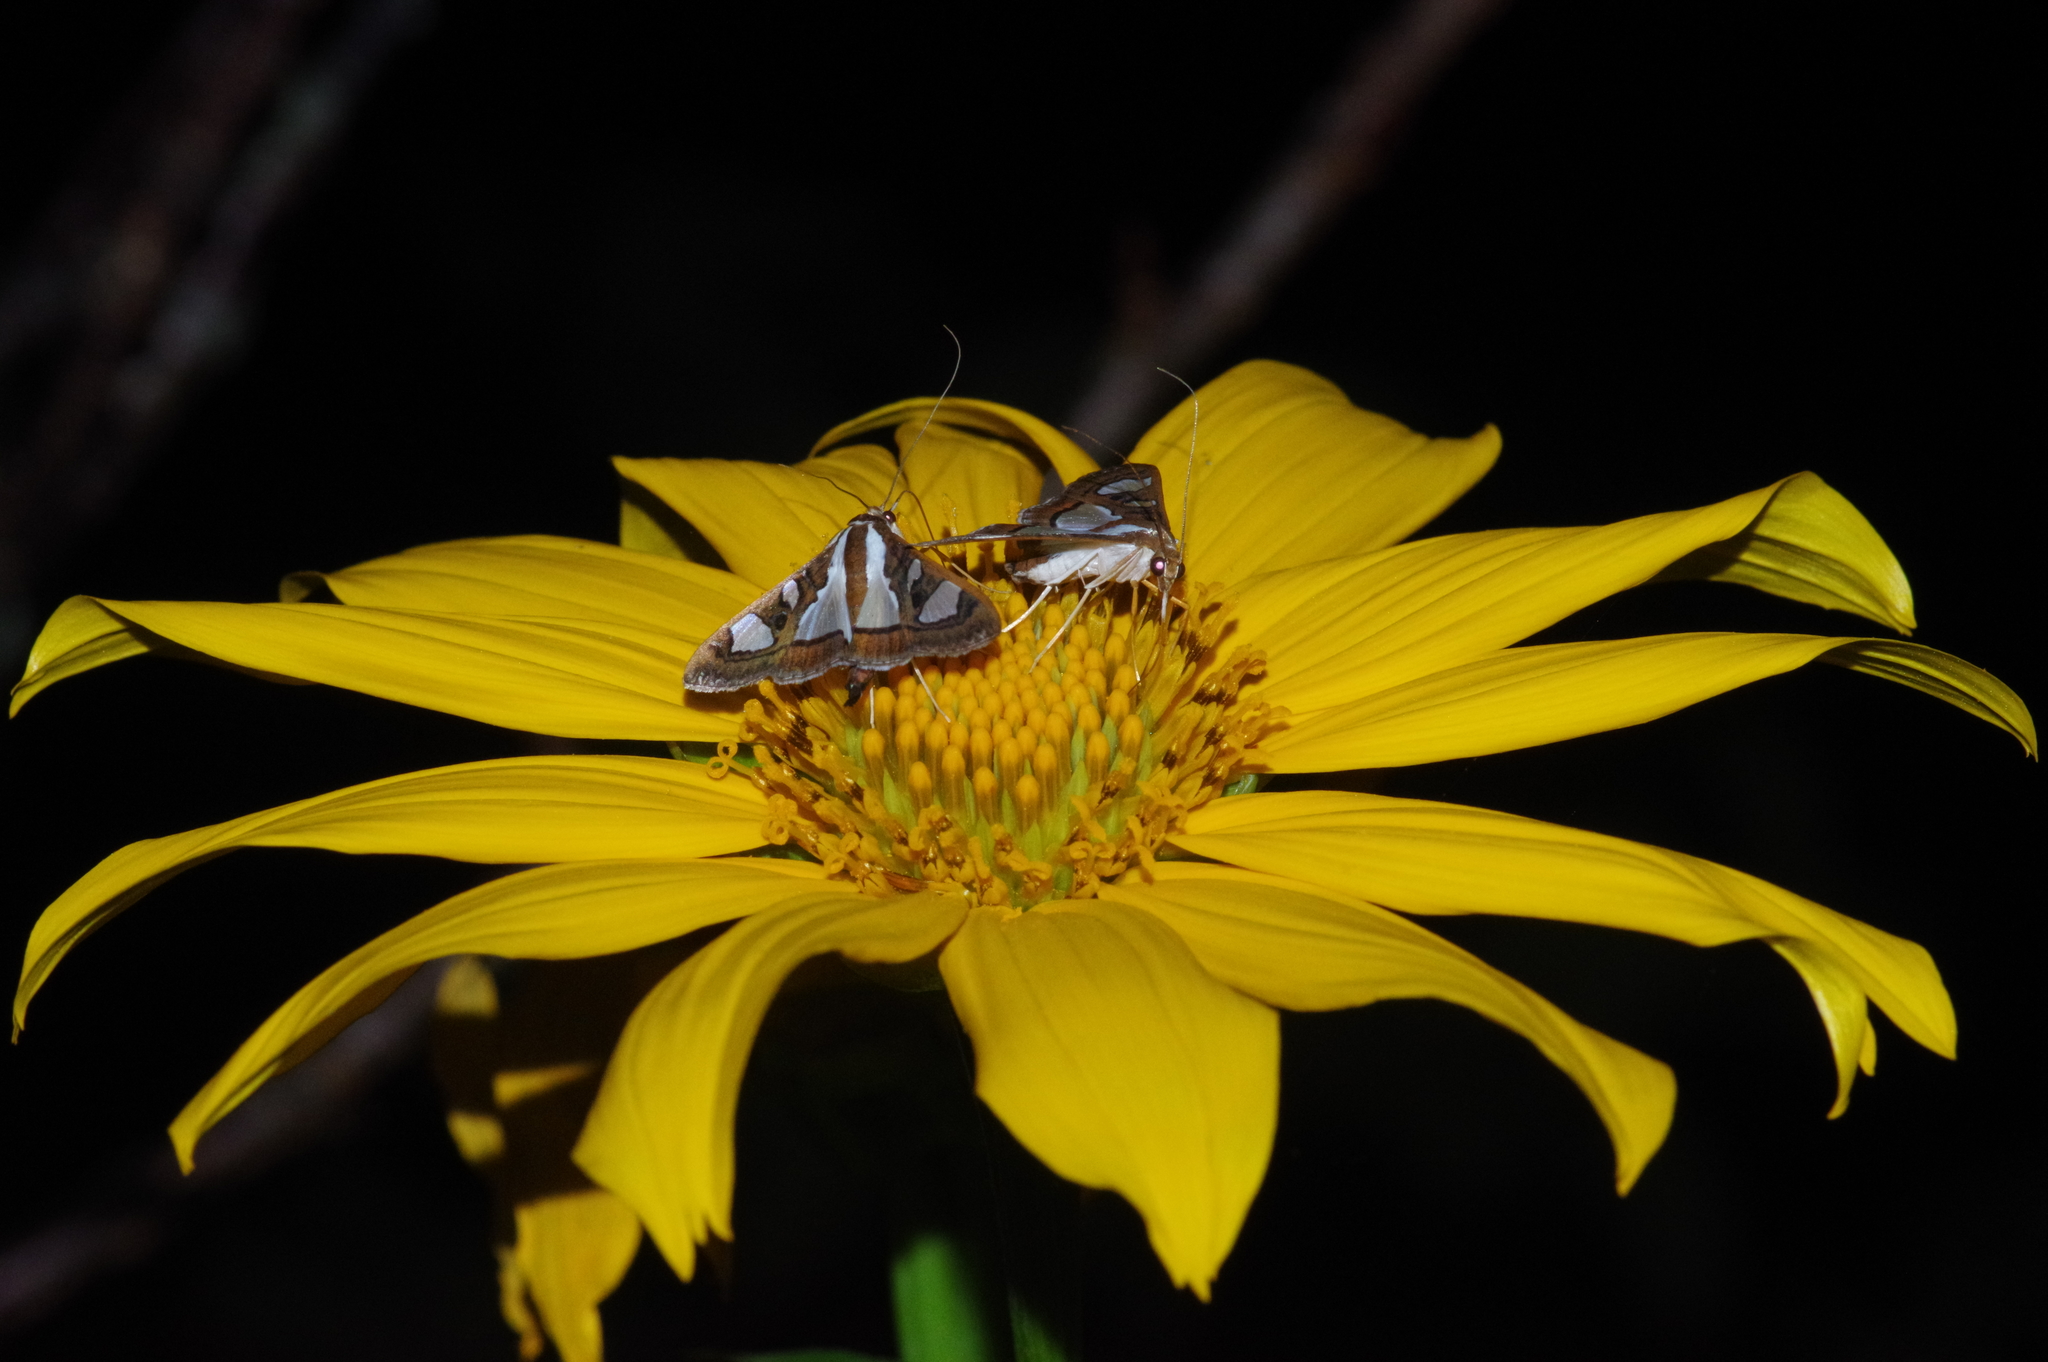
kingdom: Animalia
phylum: Arthropoda
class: Insecta
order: Lepidoptera
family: Crambidae
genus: Glyphodes
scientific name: Glyphodes bivitralis
